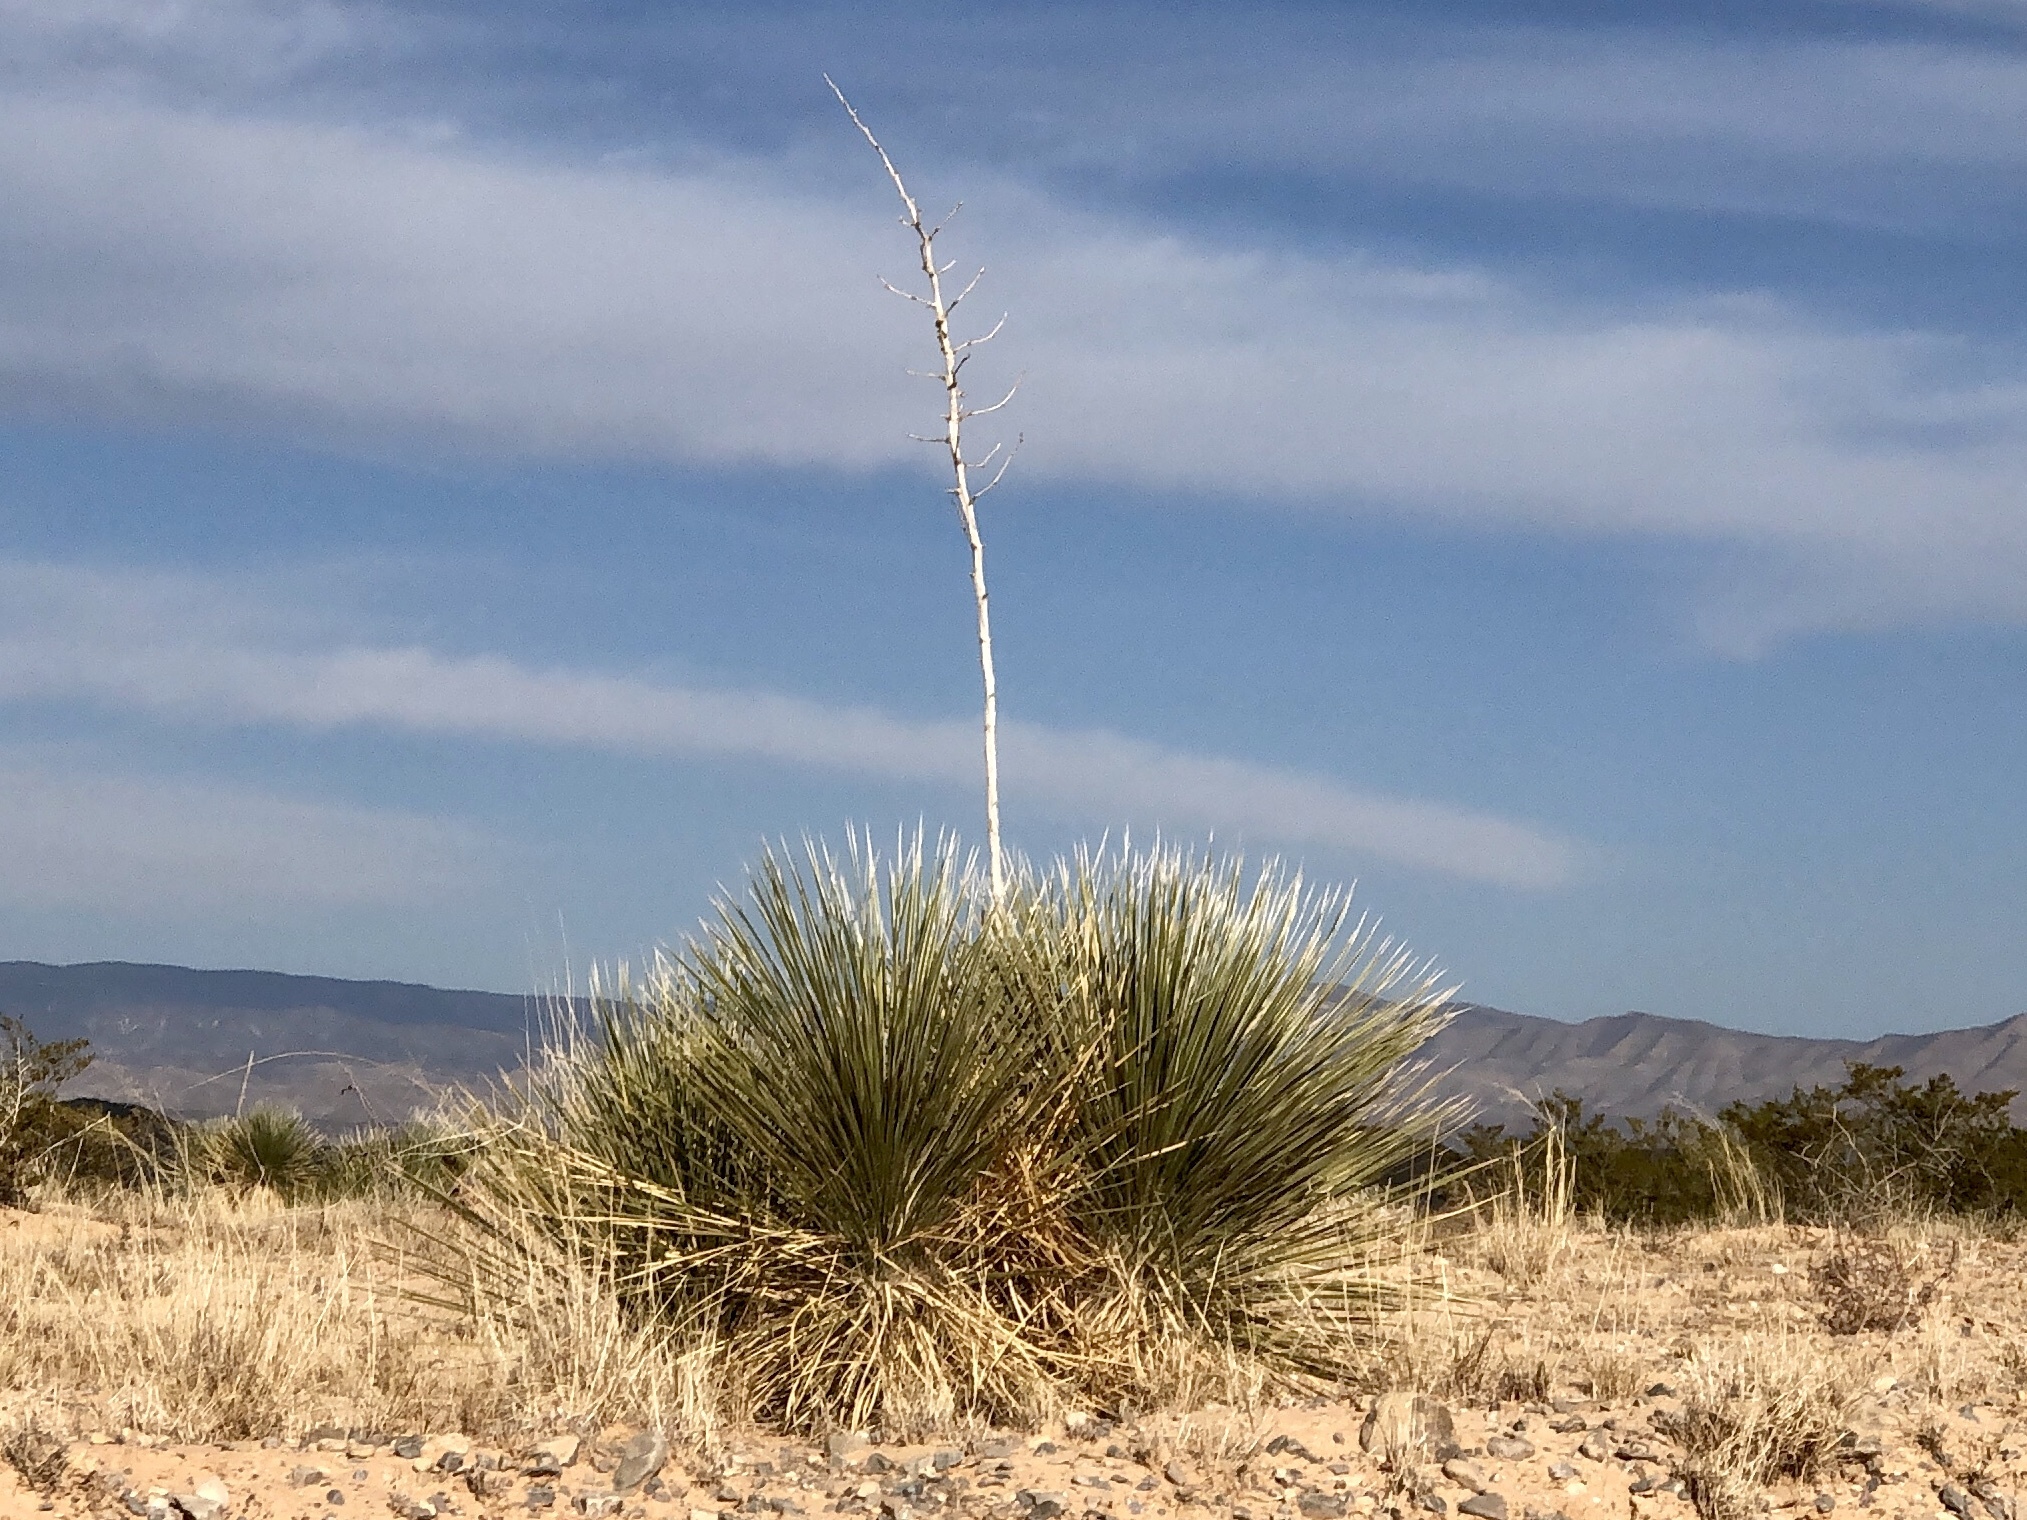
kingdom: Plantae
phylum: Tracheophyta
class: Liliopsida
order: Asparagales
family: Asparagaceae
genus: Yucca
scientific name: Yucca elata
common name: Palmella
